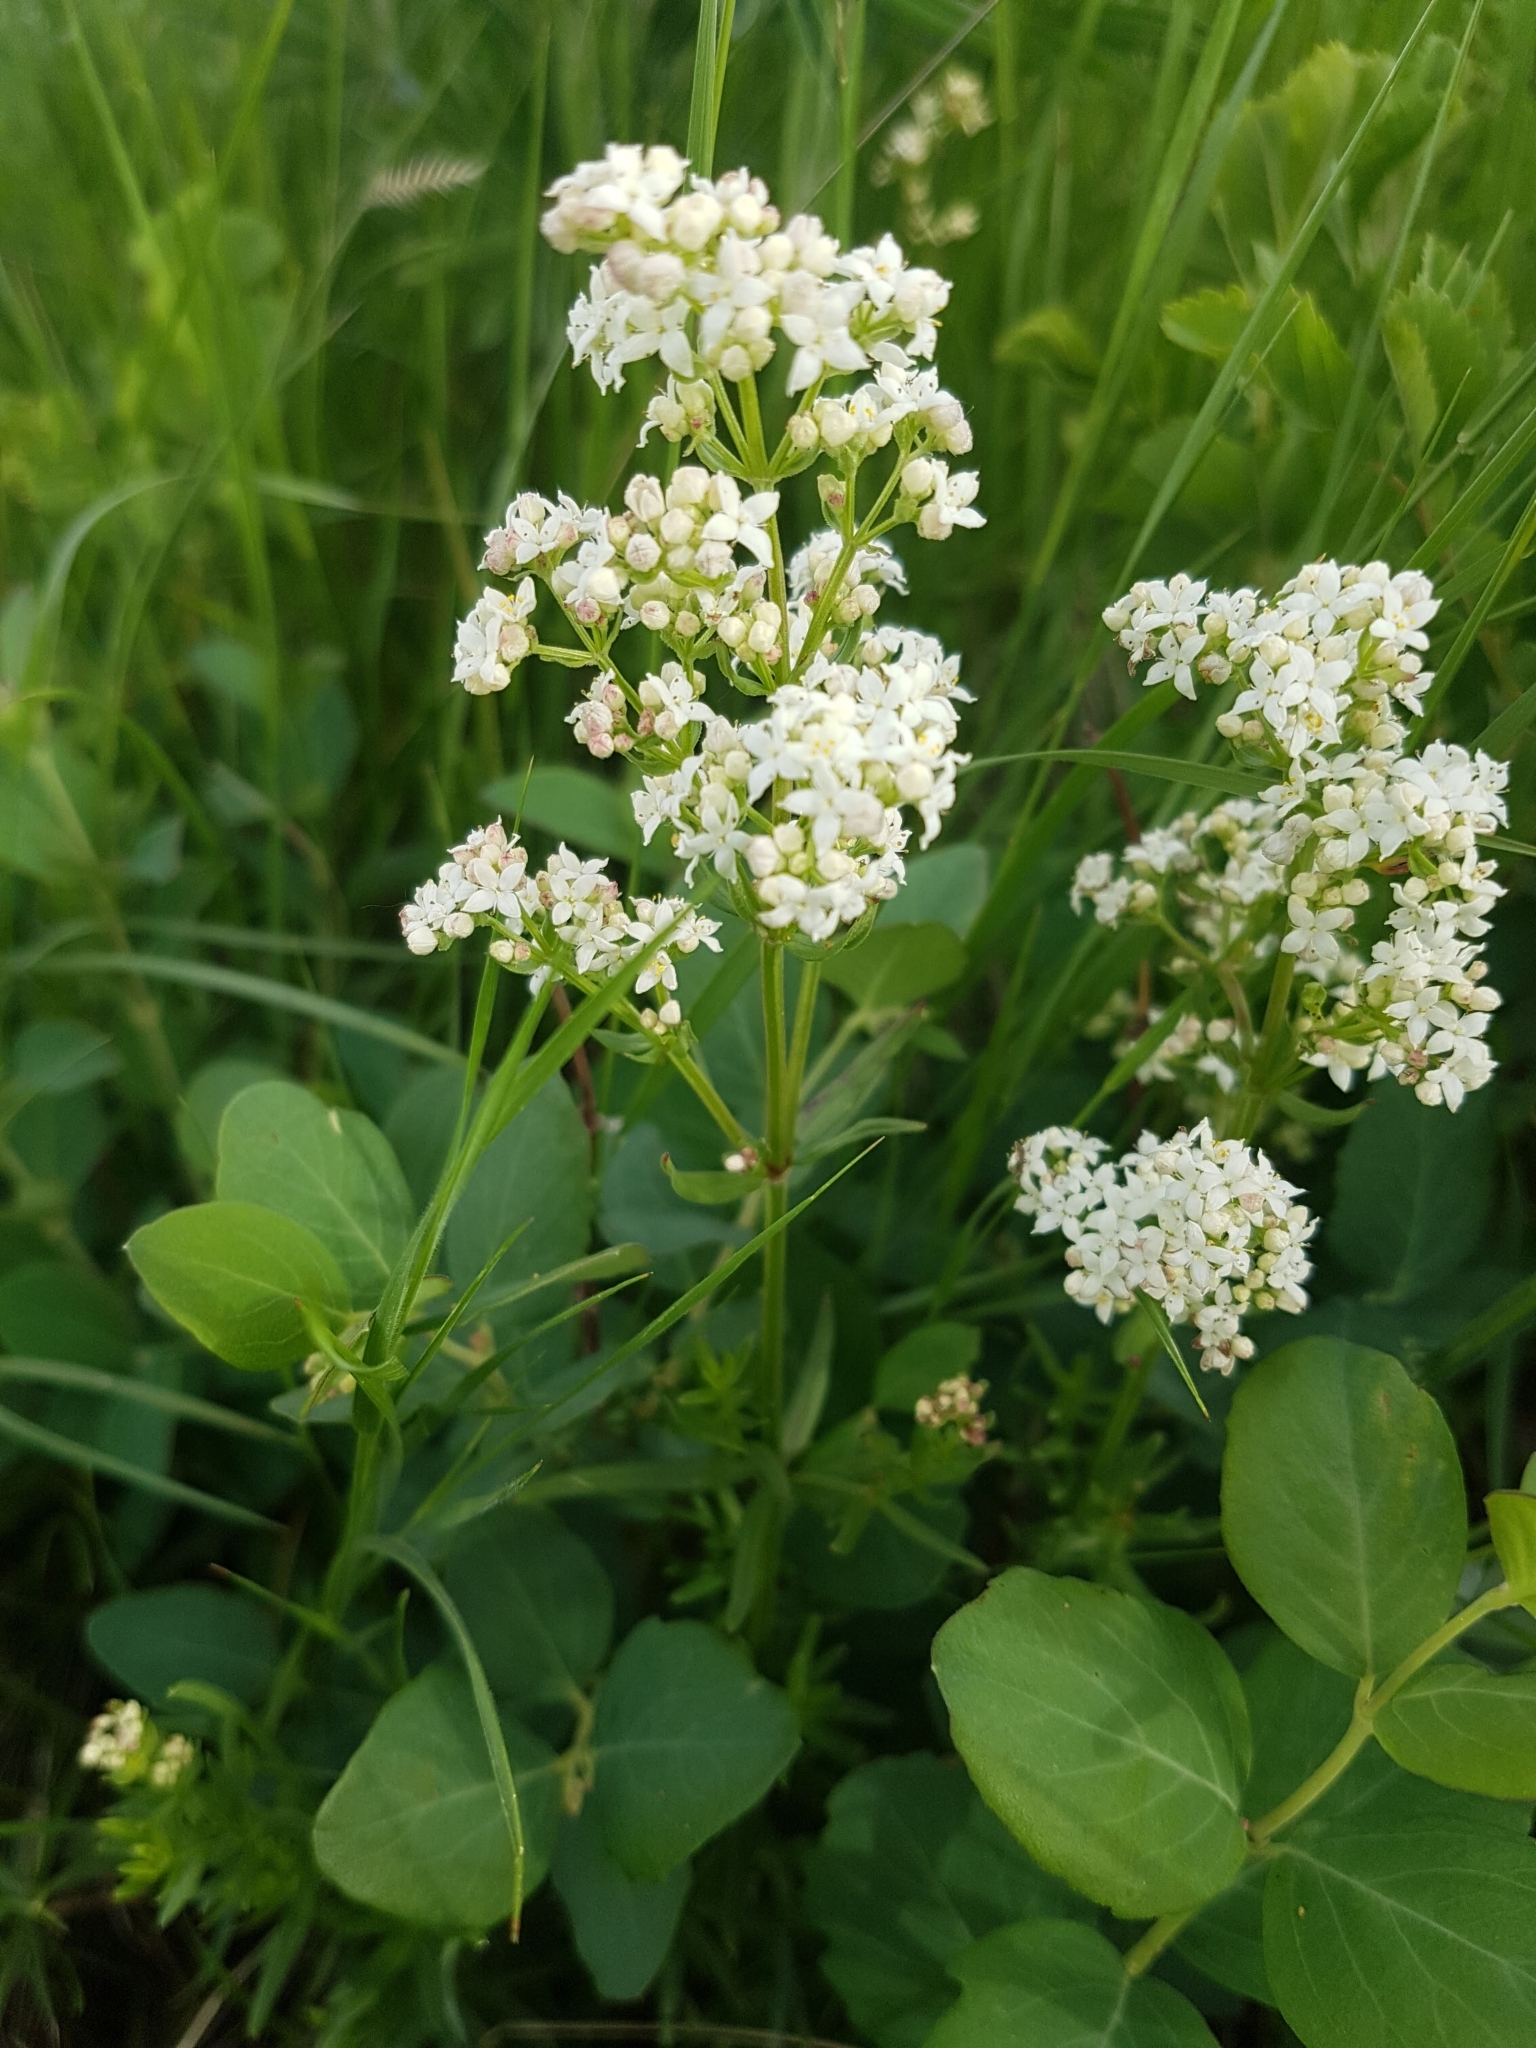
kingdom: Plantae
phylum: Tracheophyta
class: Magnoliopsida
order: Gentianales
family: Rubiaceae
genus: Galium
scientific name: Galium boreale
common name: Northern bedstraw
